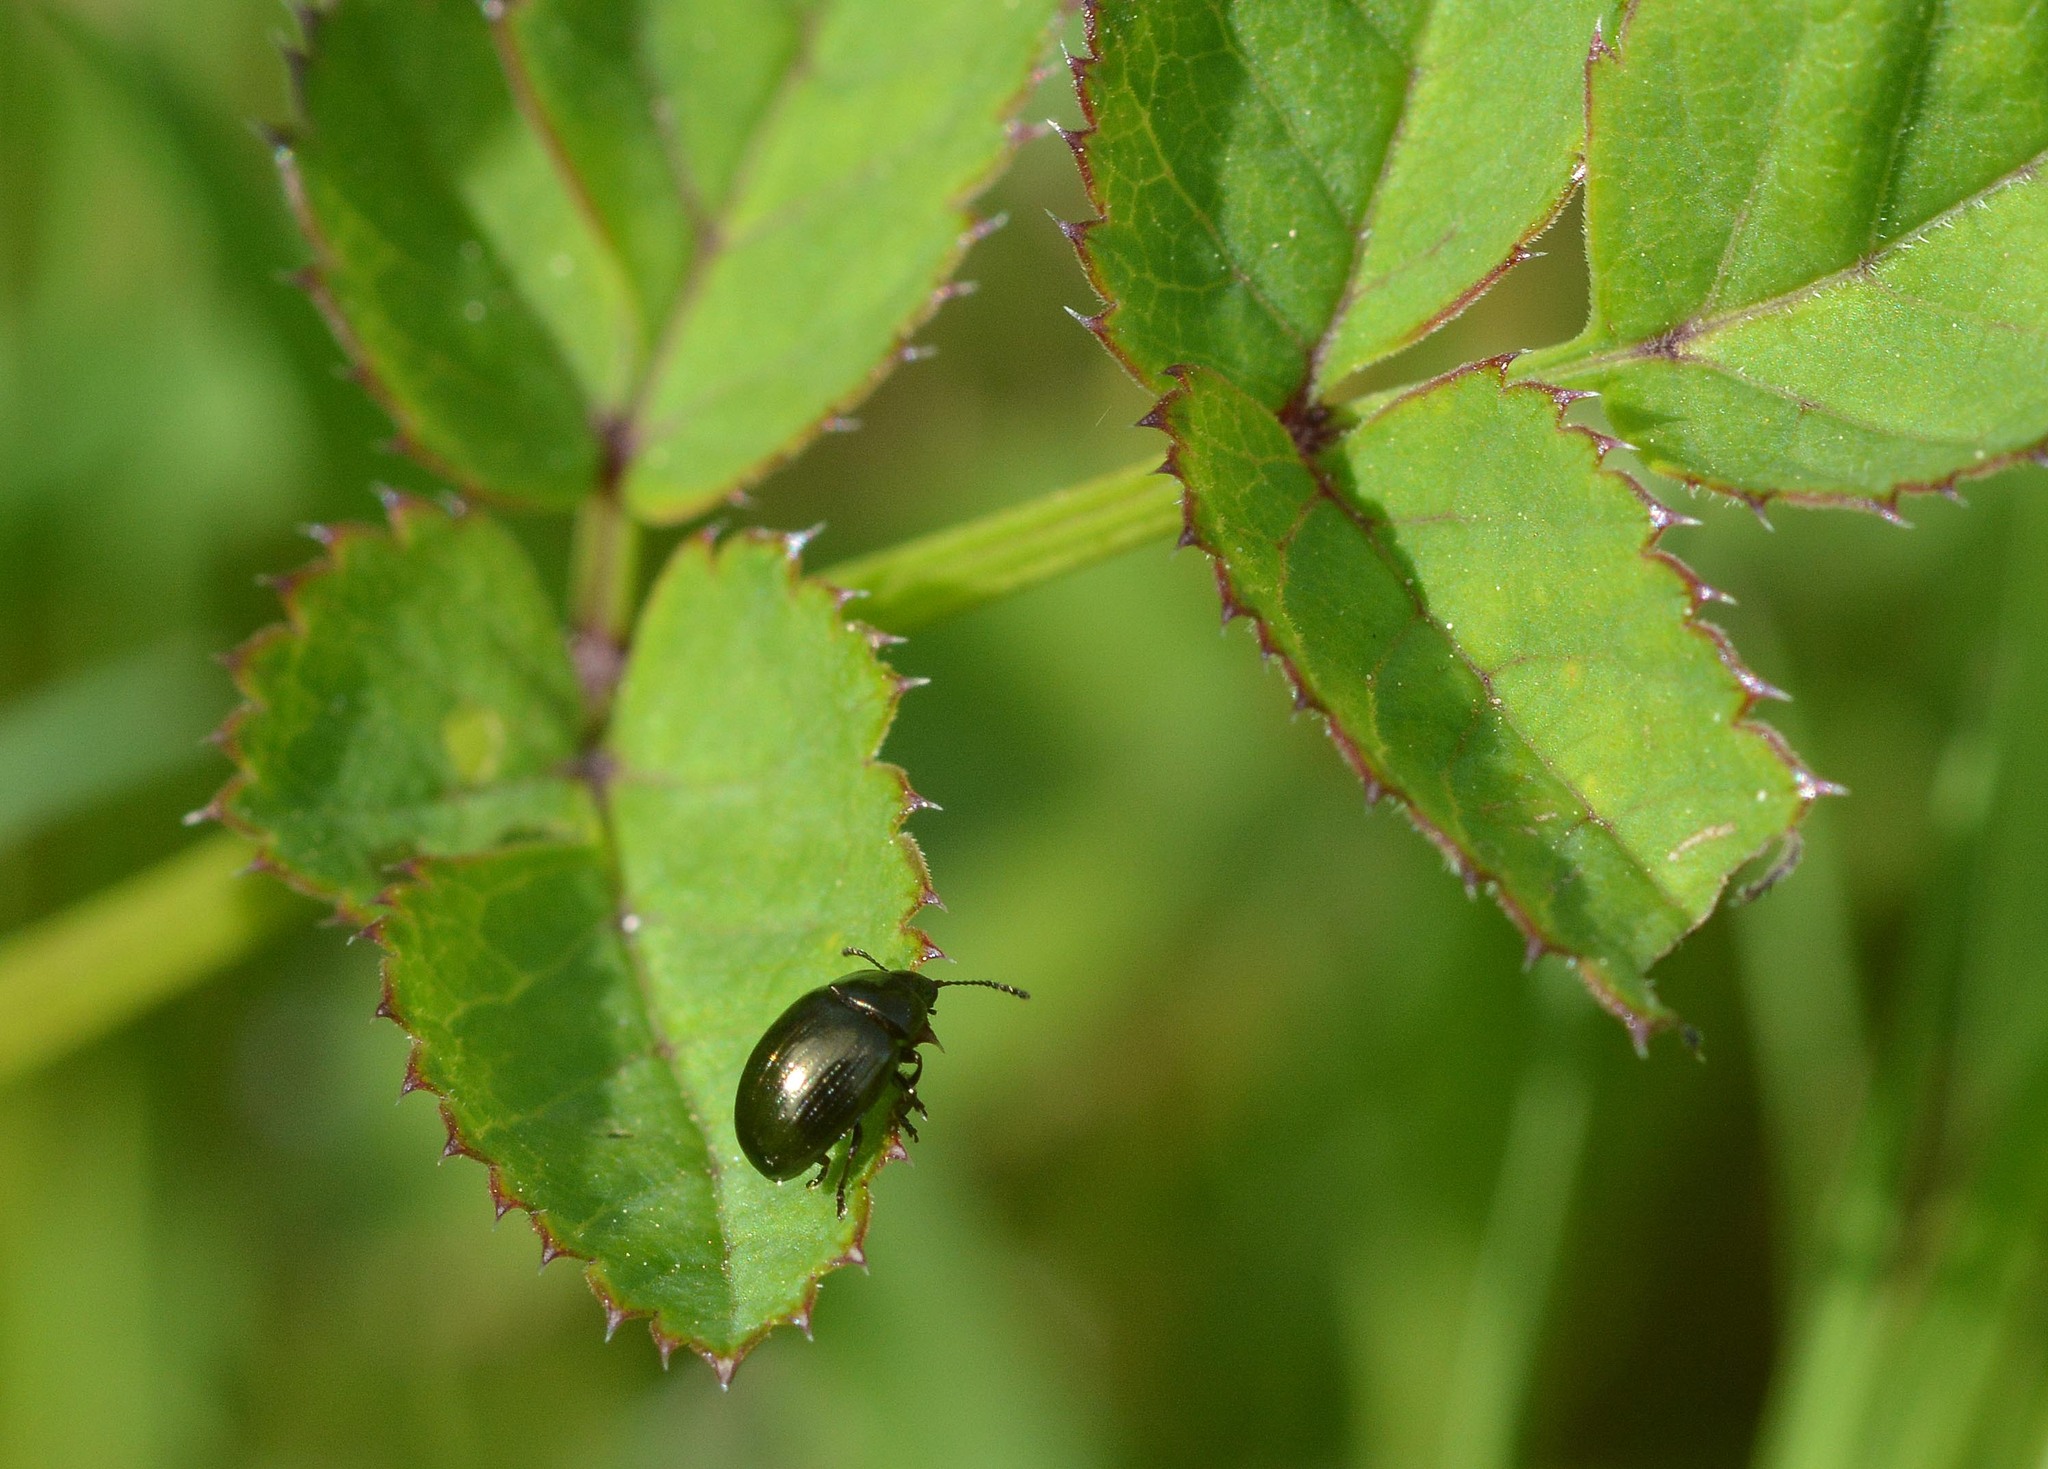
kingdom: Animalia
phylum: Arthropoda
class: Insecta
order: Coleoptera
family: Chrysomelidae
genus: Phaedon
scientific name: Phaedon tumidulus
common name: Celery leaf beetle
